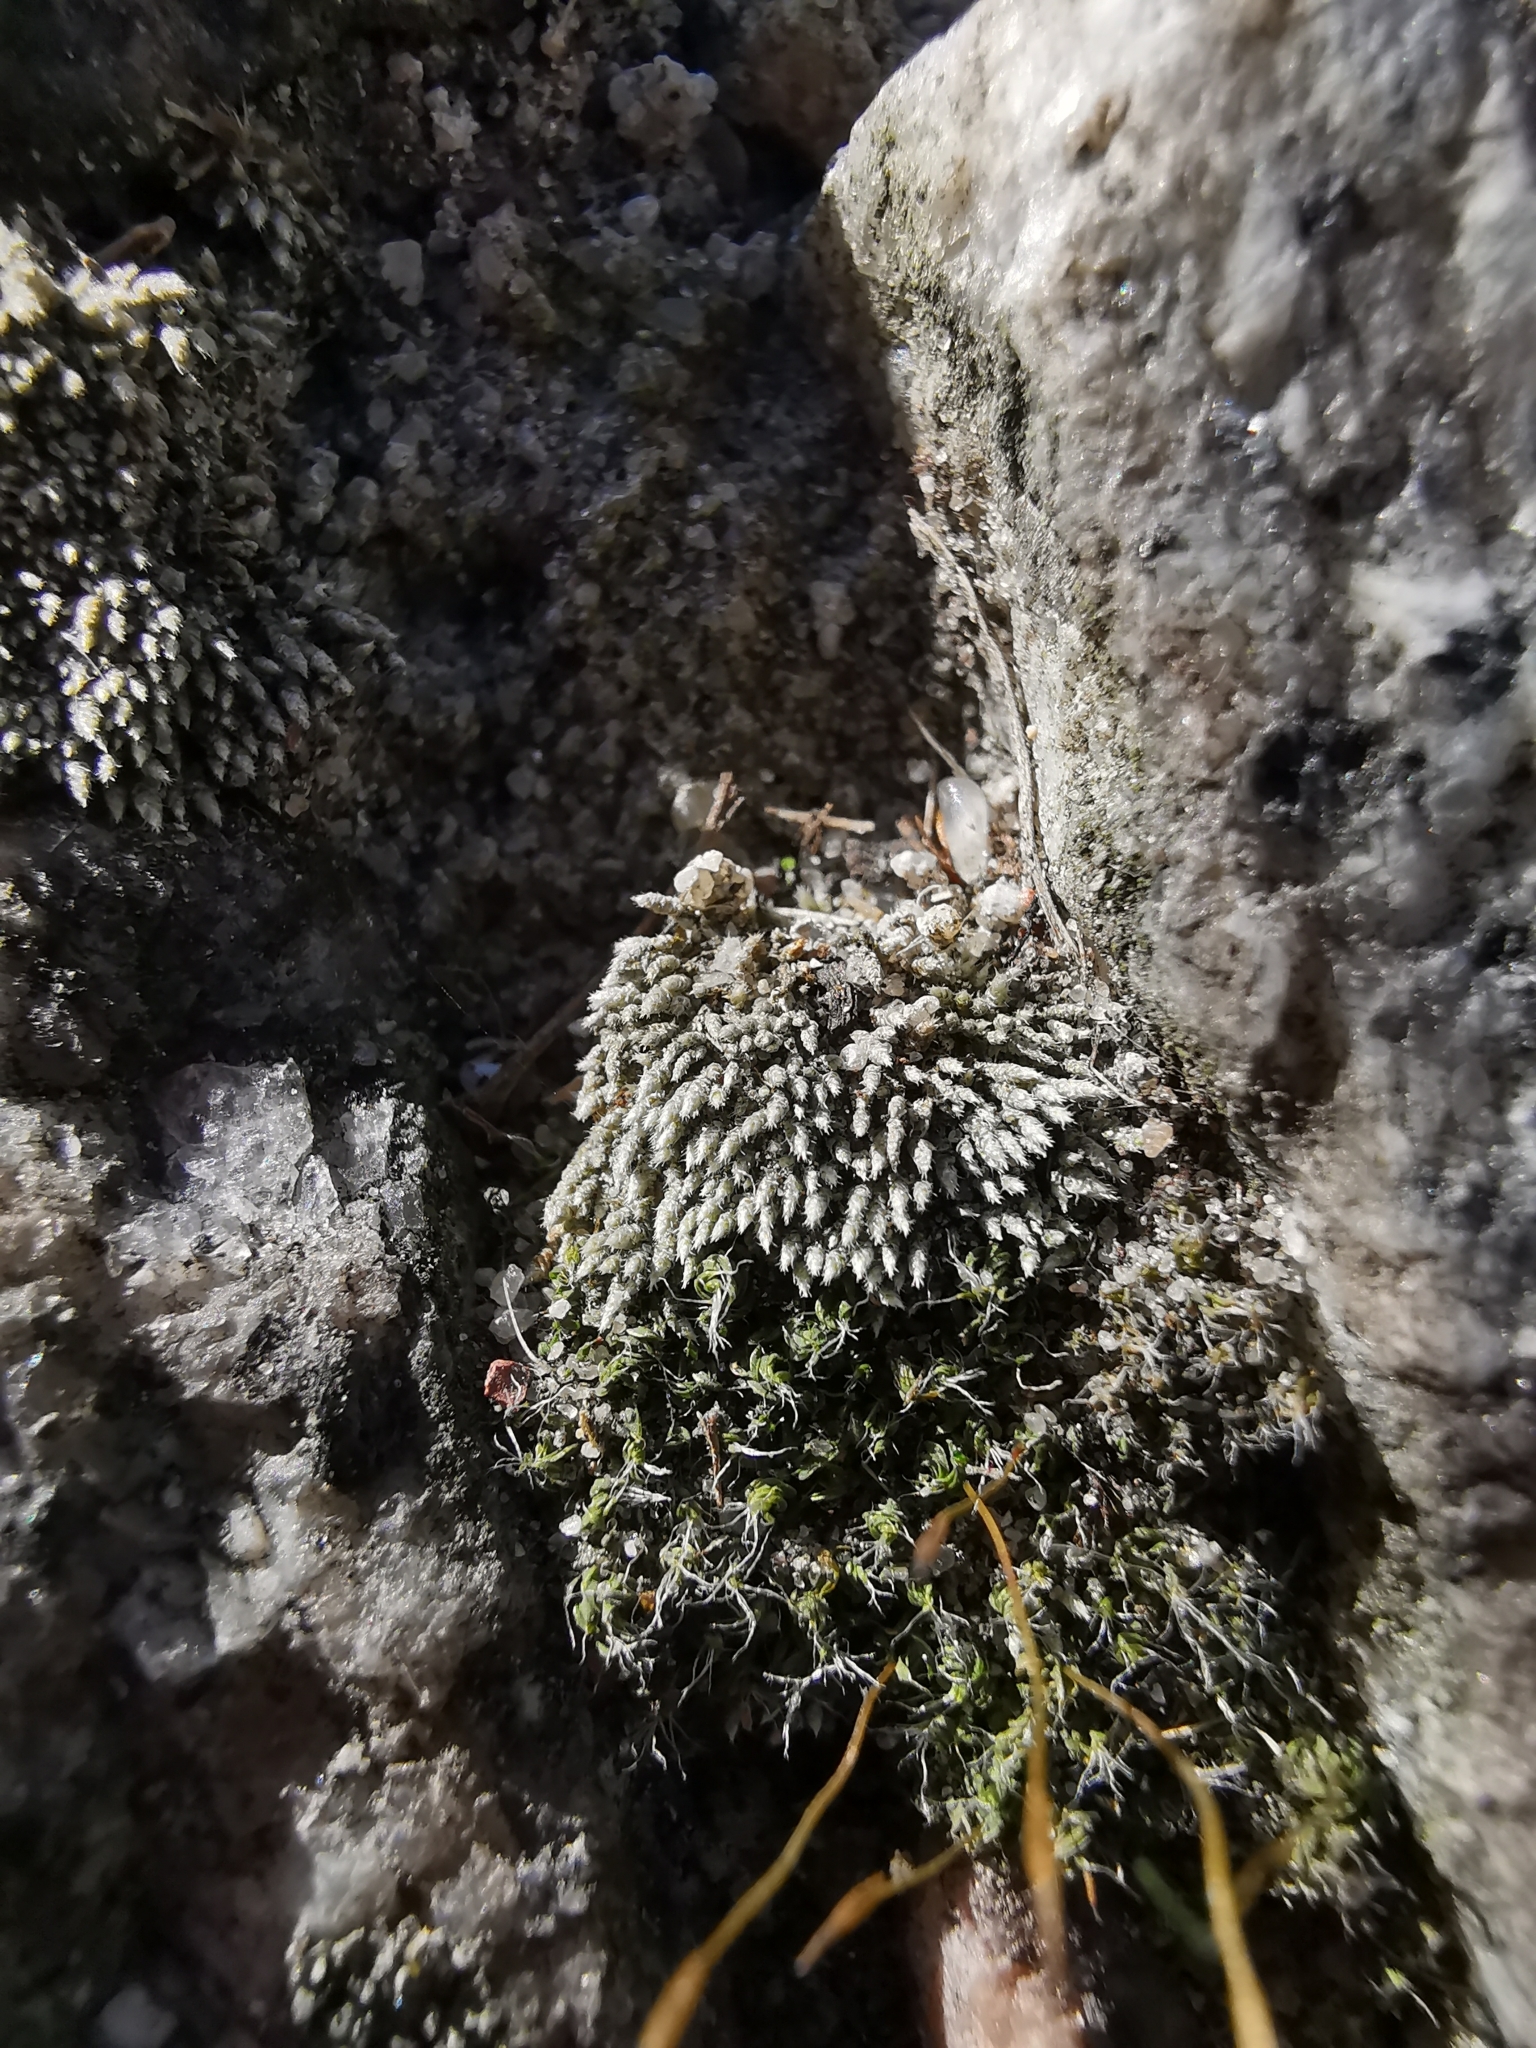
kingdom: Plantae
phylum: Bryophyta
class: Bryopsida
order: Bryales
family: Bryaceae
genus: Bryum
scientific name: Bryum argenteum
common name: Silver-moss
